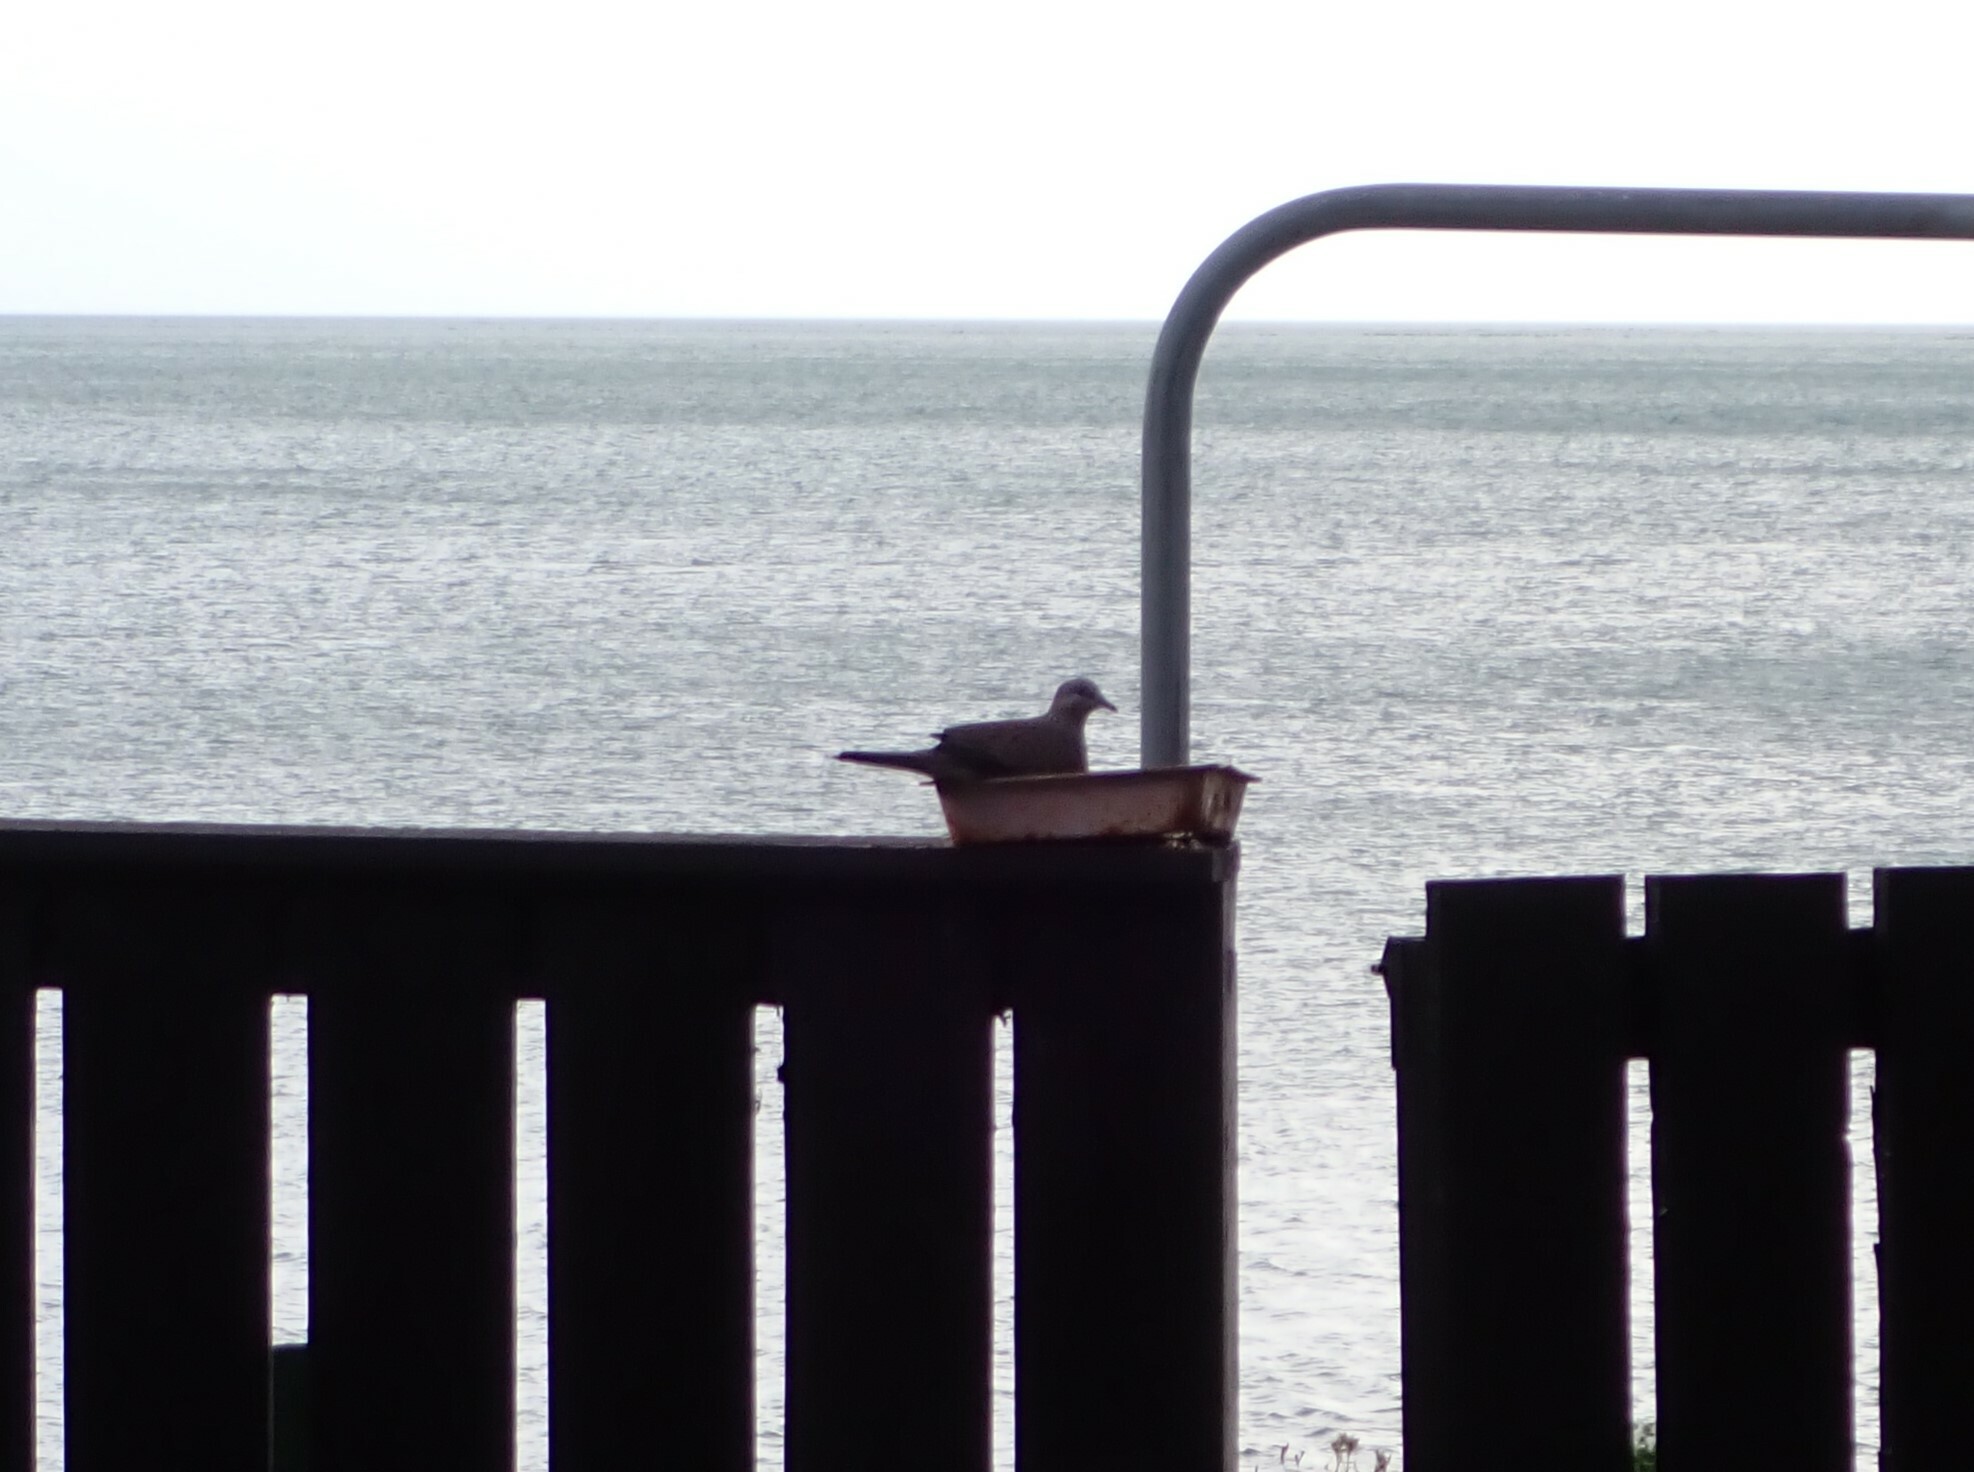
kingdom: Animalia
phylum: Chordata
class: Aves
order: Columbiformes
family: Columbidae
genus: Spilopelia
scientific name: Spilopelia chinensis
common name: Spotted dove
